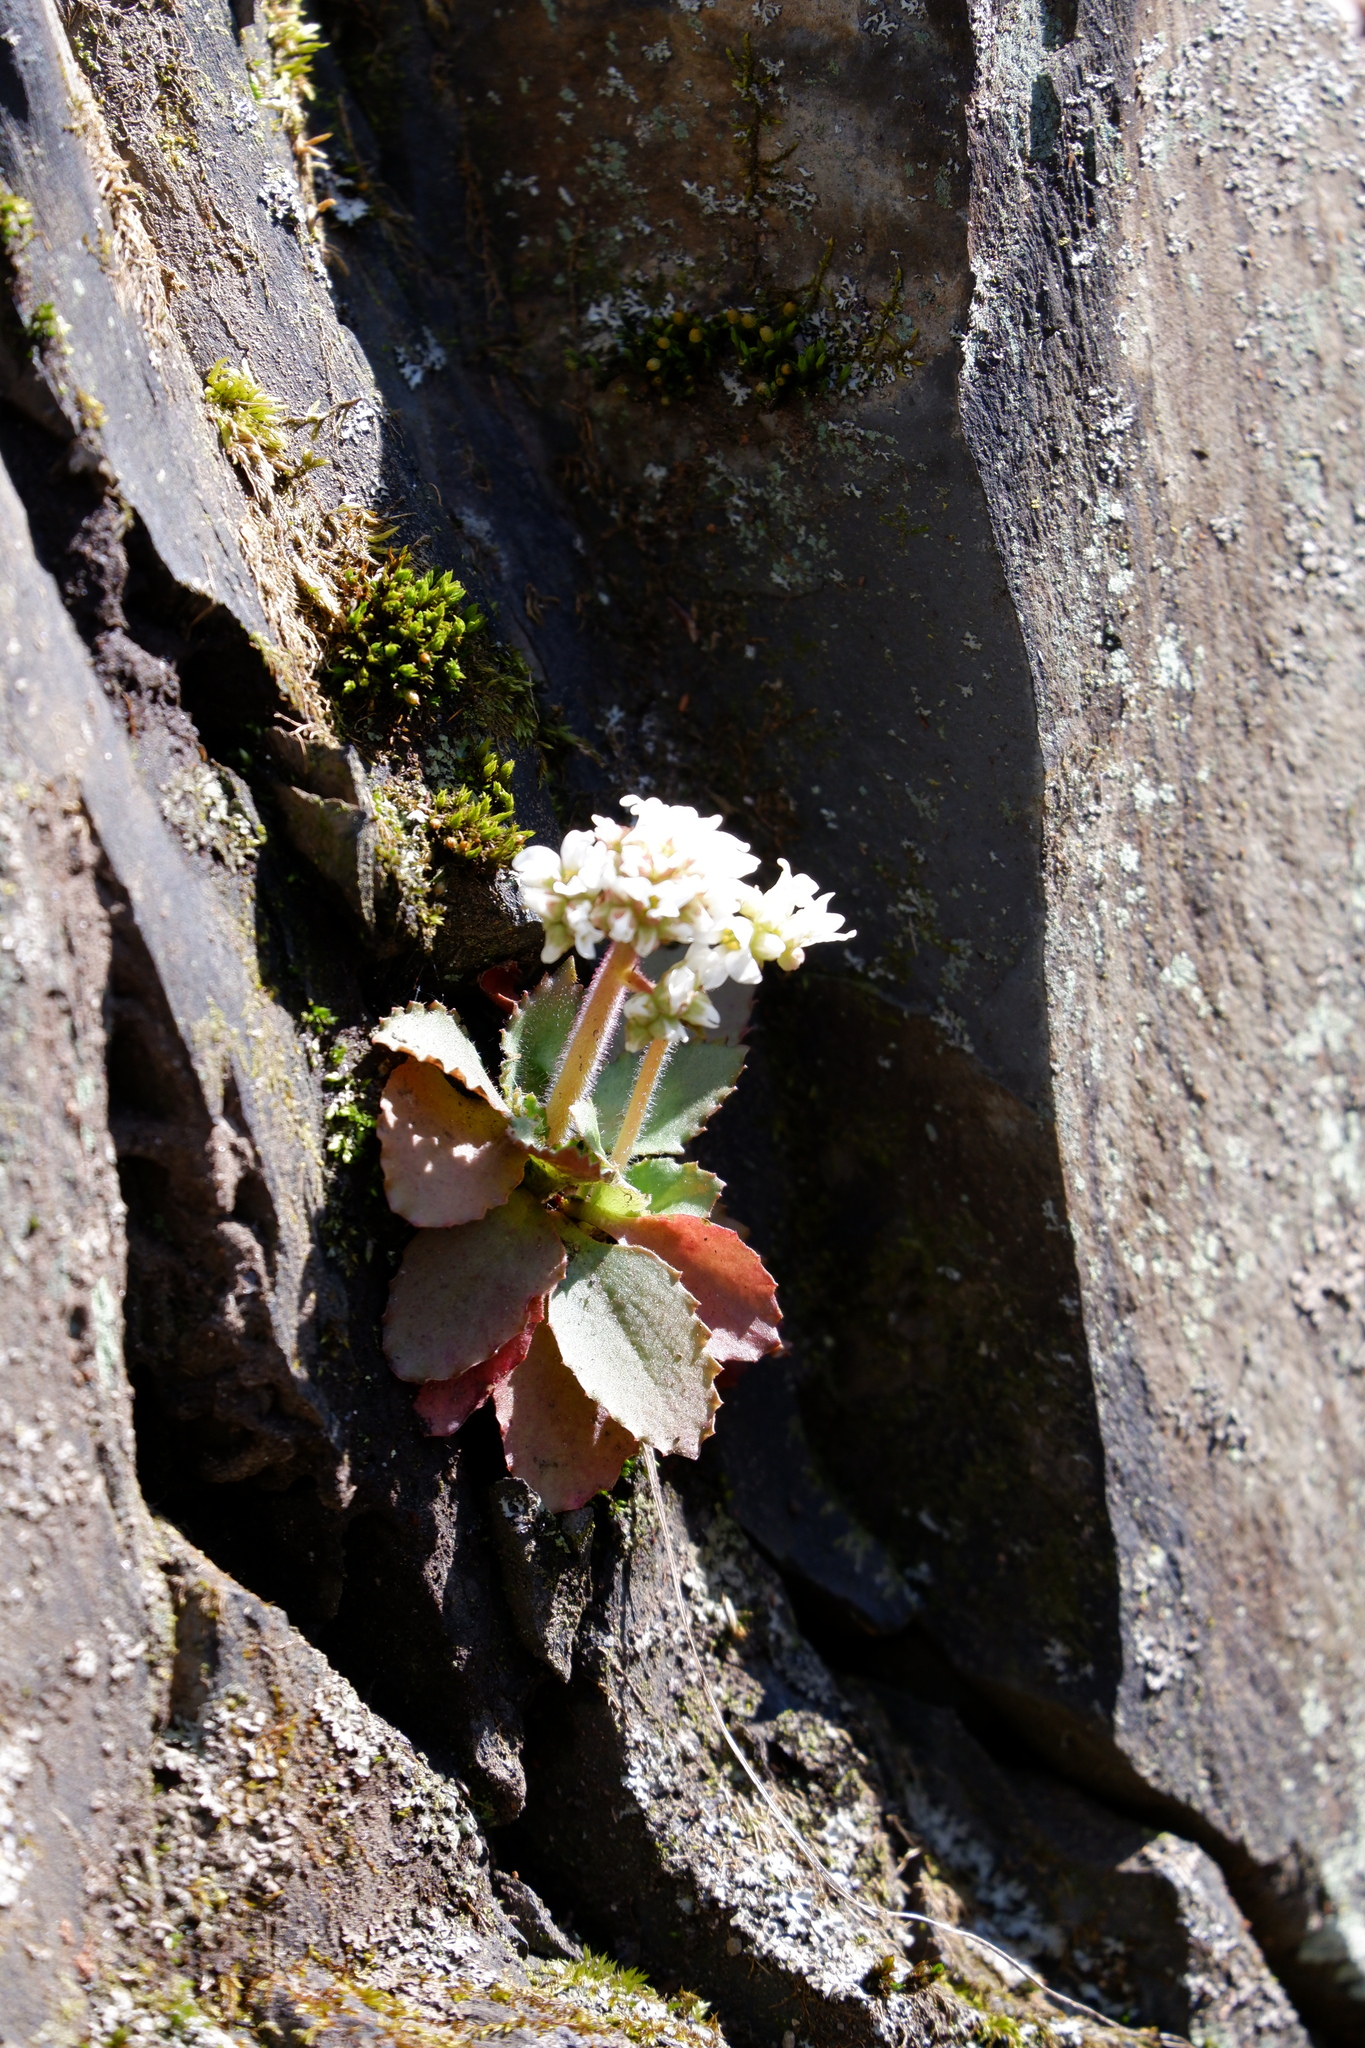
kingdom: Plantae
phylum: Tracheophyta
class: Magnoliopsida
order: Saxifragales
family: Saxifragaceae
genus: Micranthes
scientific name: Micranthes virginiensis
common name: Early saxifrage
